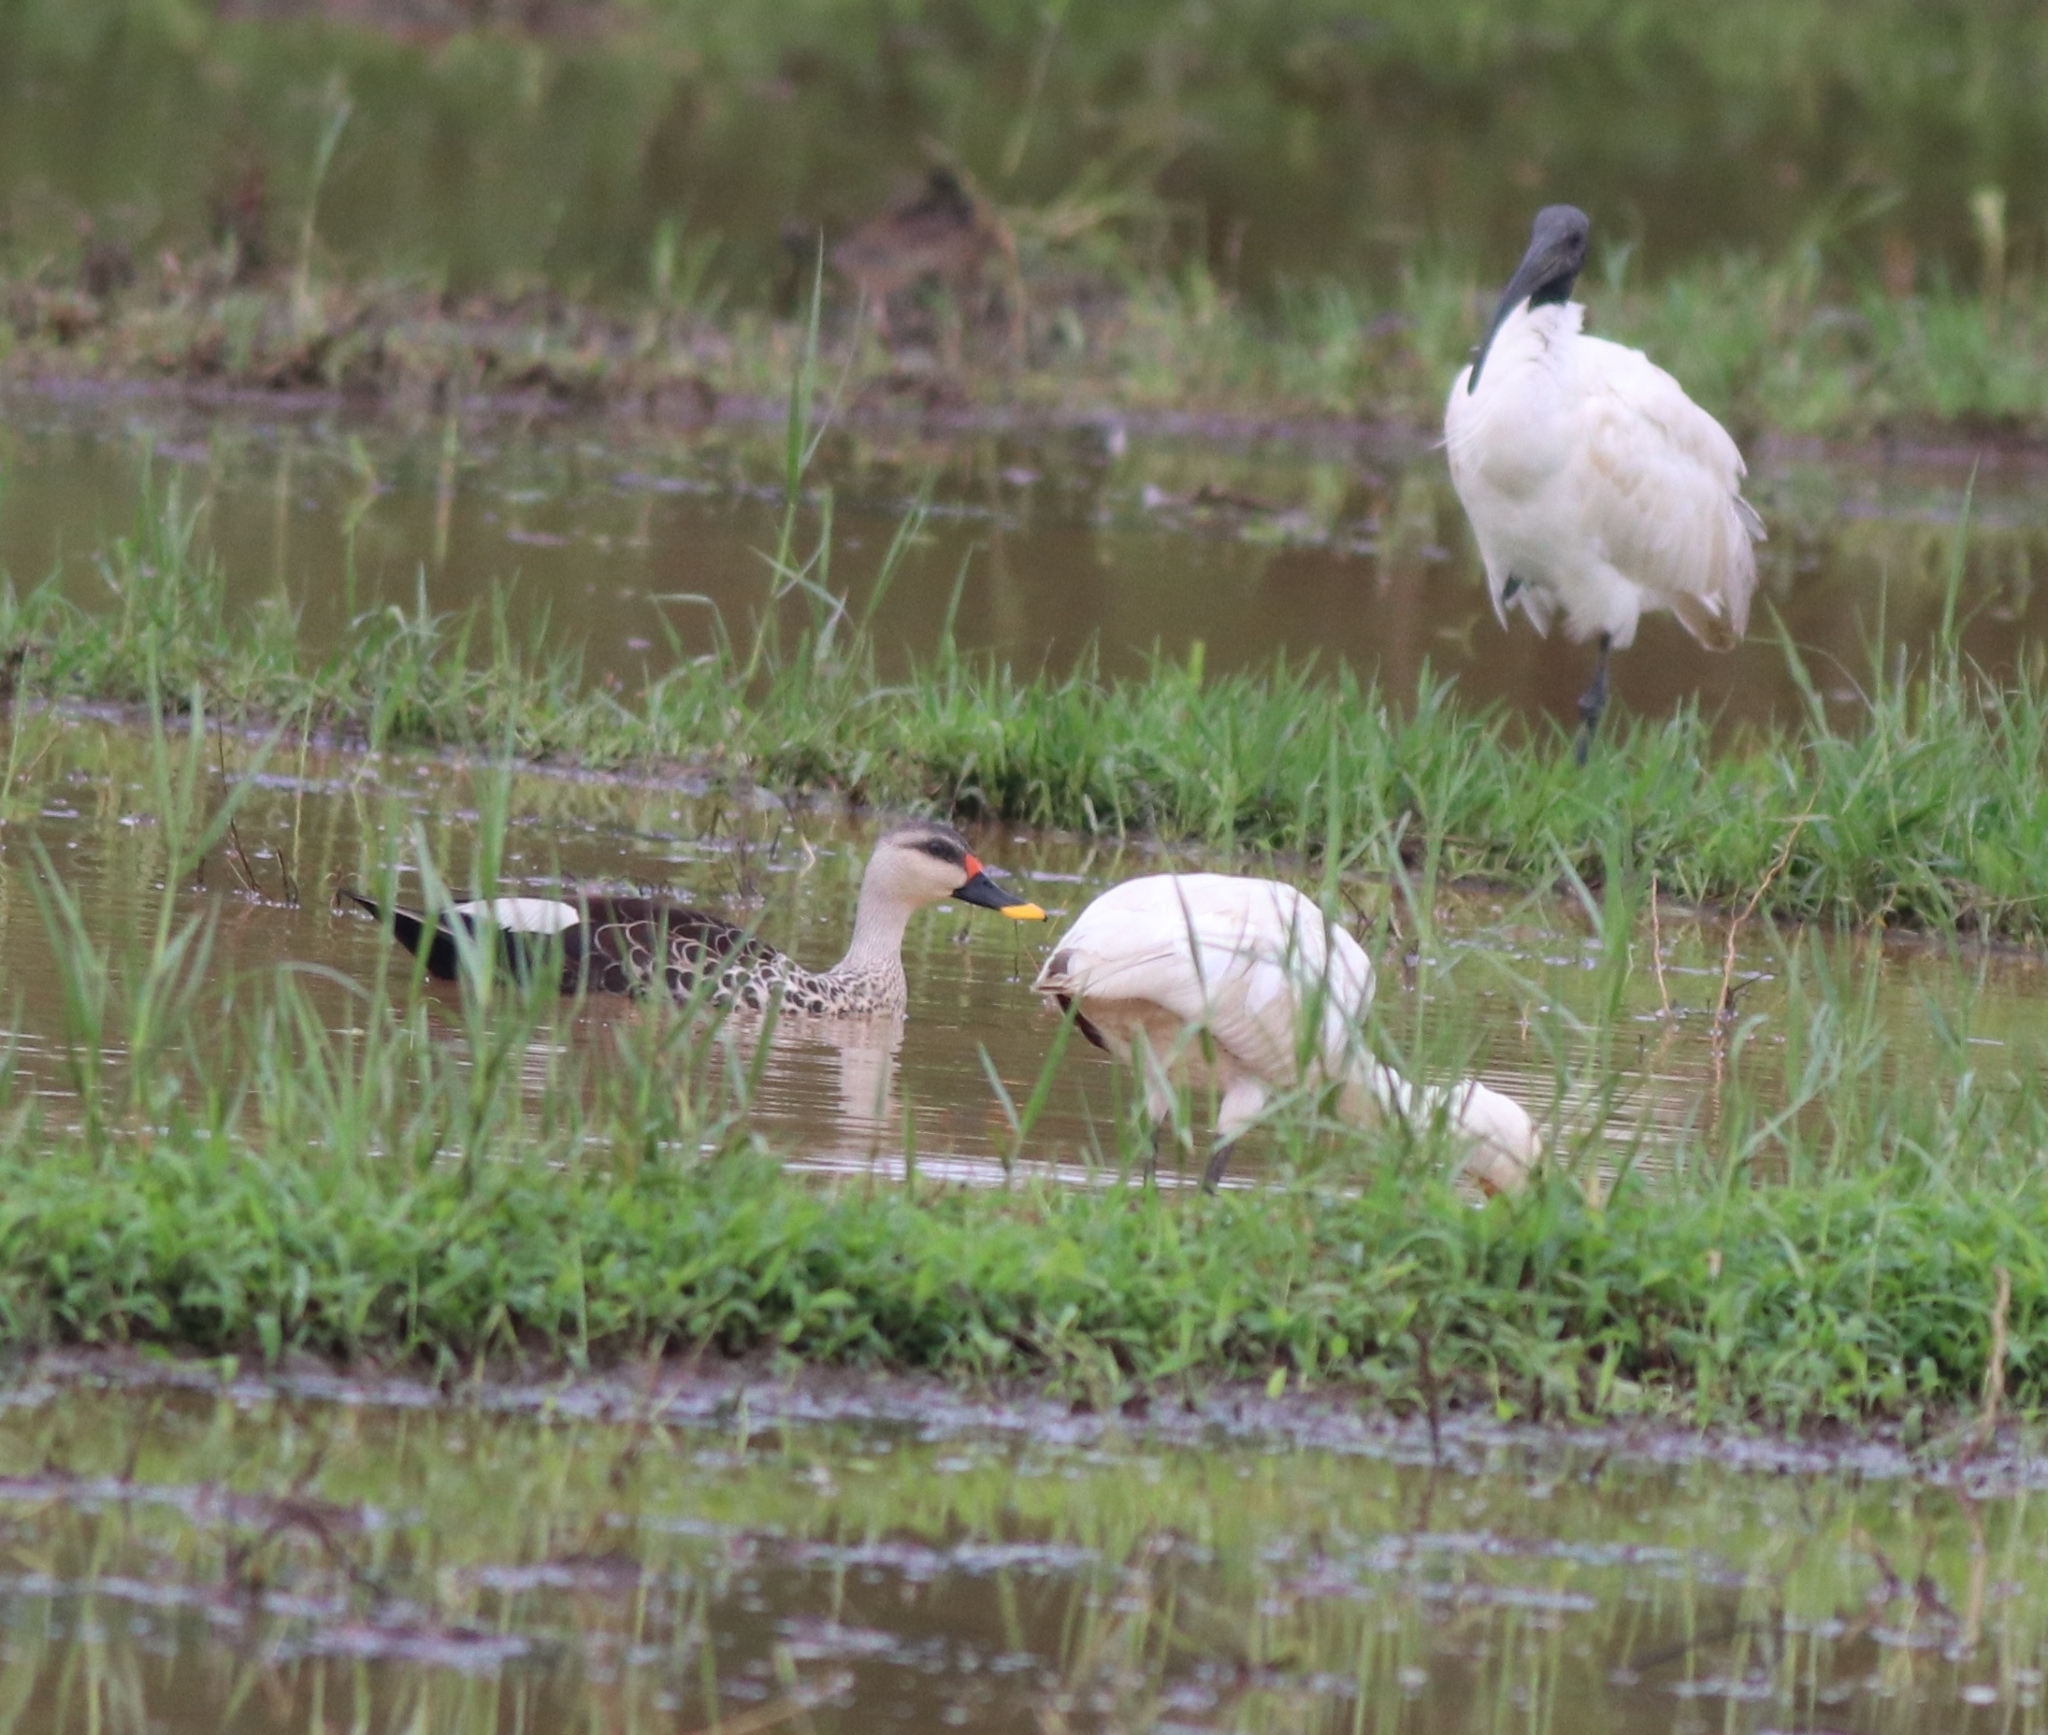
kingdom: Animalia
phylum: Chordata
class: Aves
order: Pelecaniformes
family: Threskiornithidae
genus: Threskiornis
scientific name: Threskiornis melanocephalus
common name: Black-headed ibis
